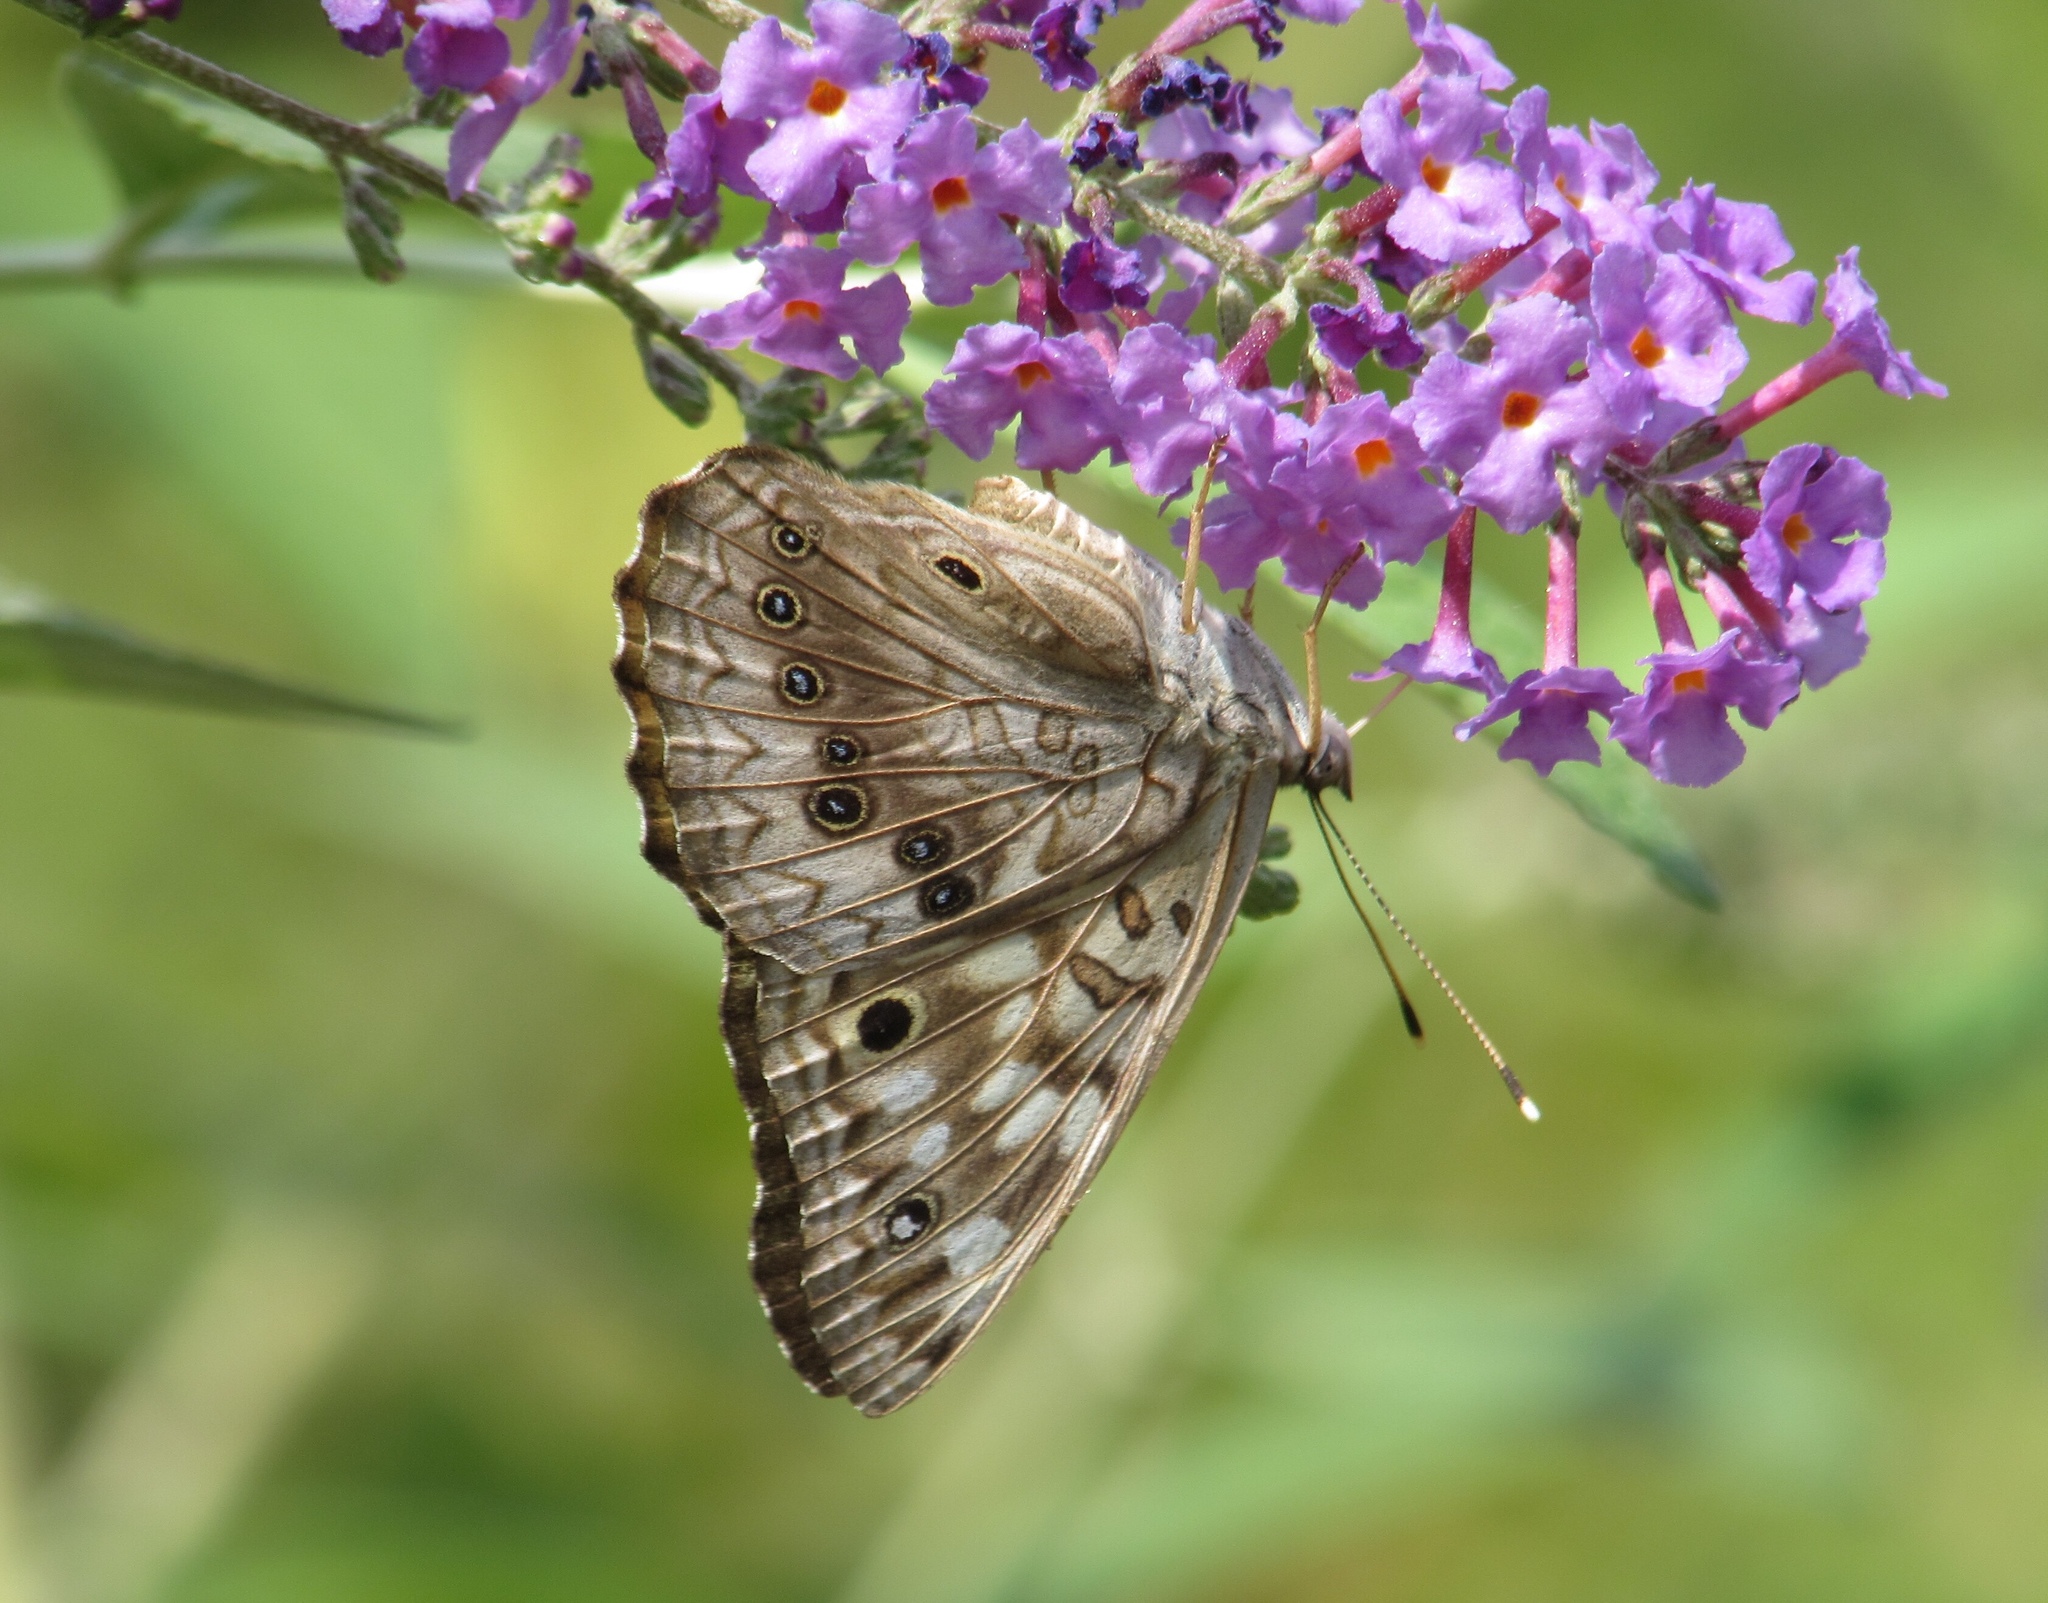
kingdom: Animalia
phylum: Arthropoda
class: Insecta
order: Lepidoptera
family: Nymphalidae
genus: Asterocampa
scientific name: Asterocampa celtis
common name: Hackberry emperor
